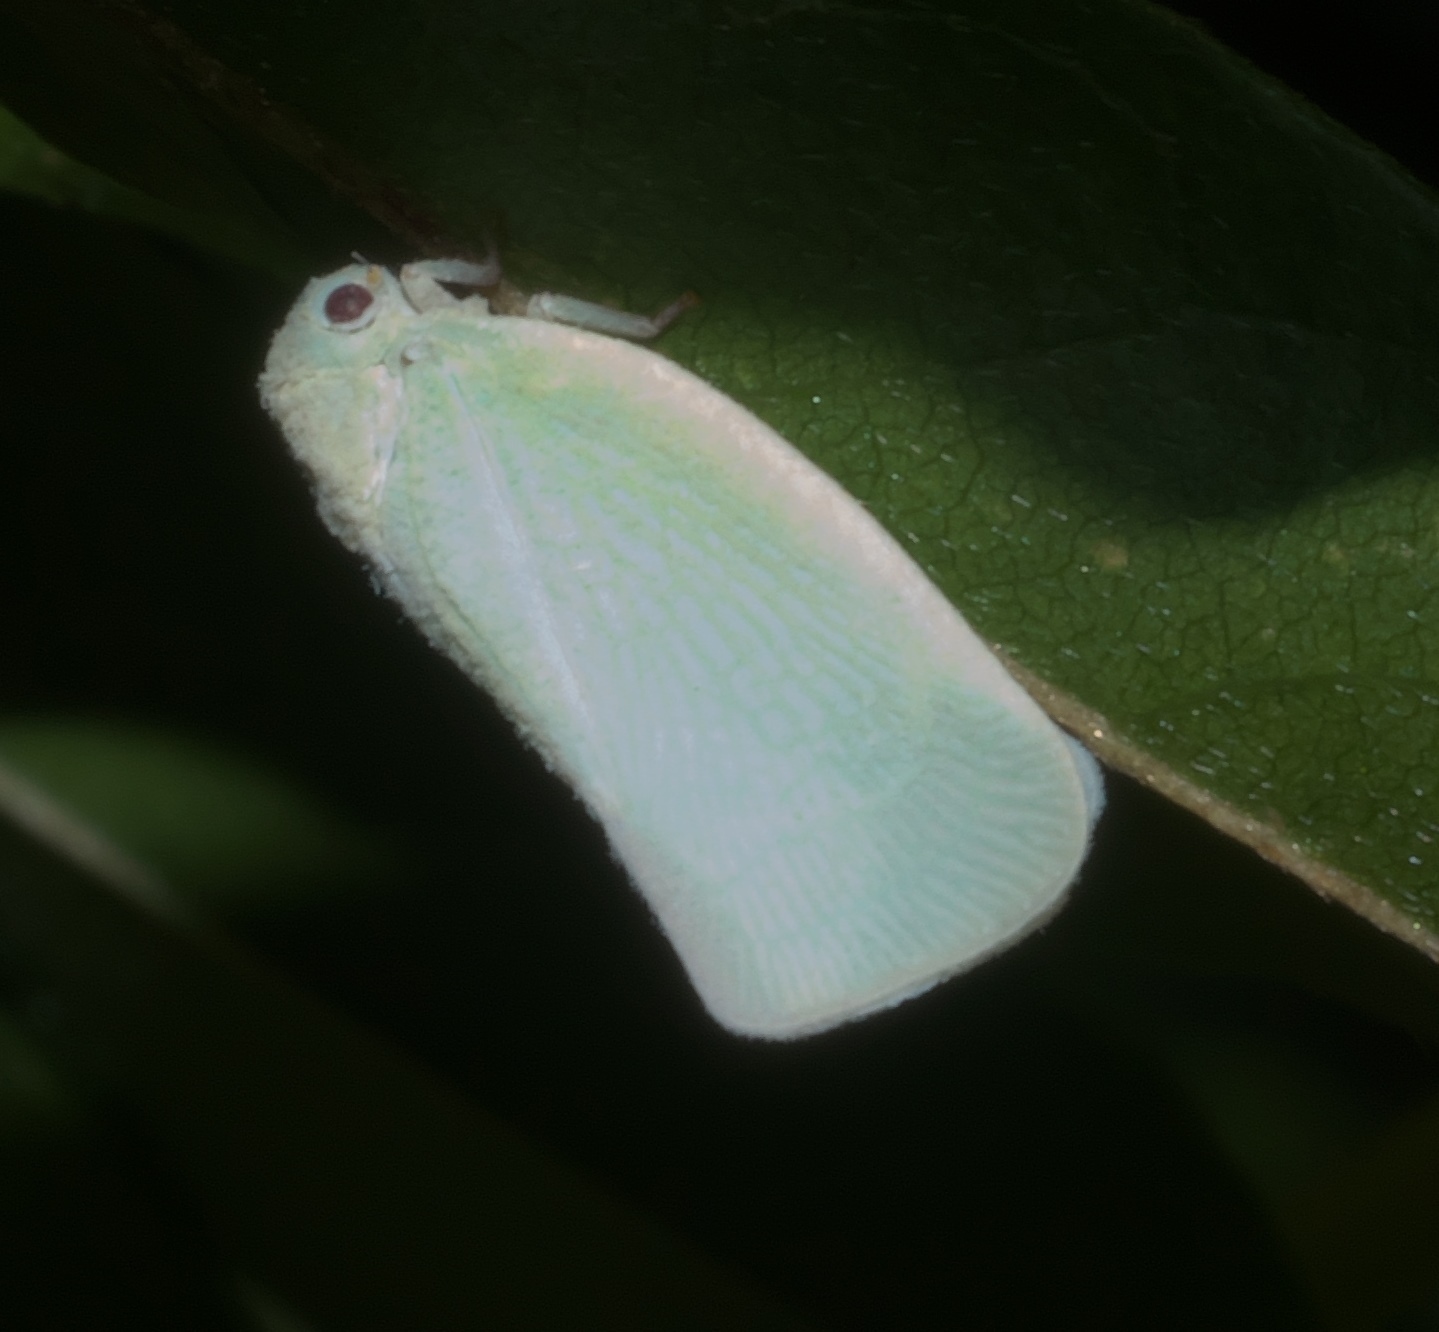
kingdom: Animalia
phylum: Arthropoda
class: Insecta
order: Hemiptera
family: Flatidae
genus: Flatormenis
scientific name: Flatormenis proxima
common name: Northern flatid planthopper
